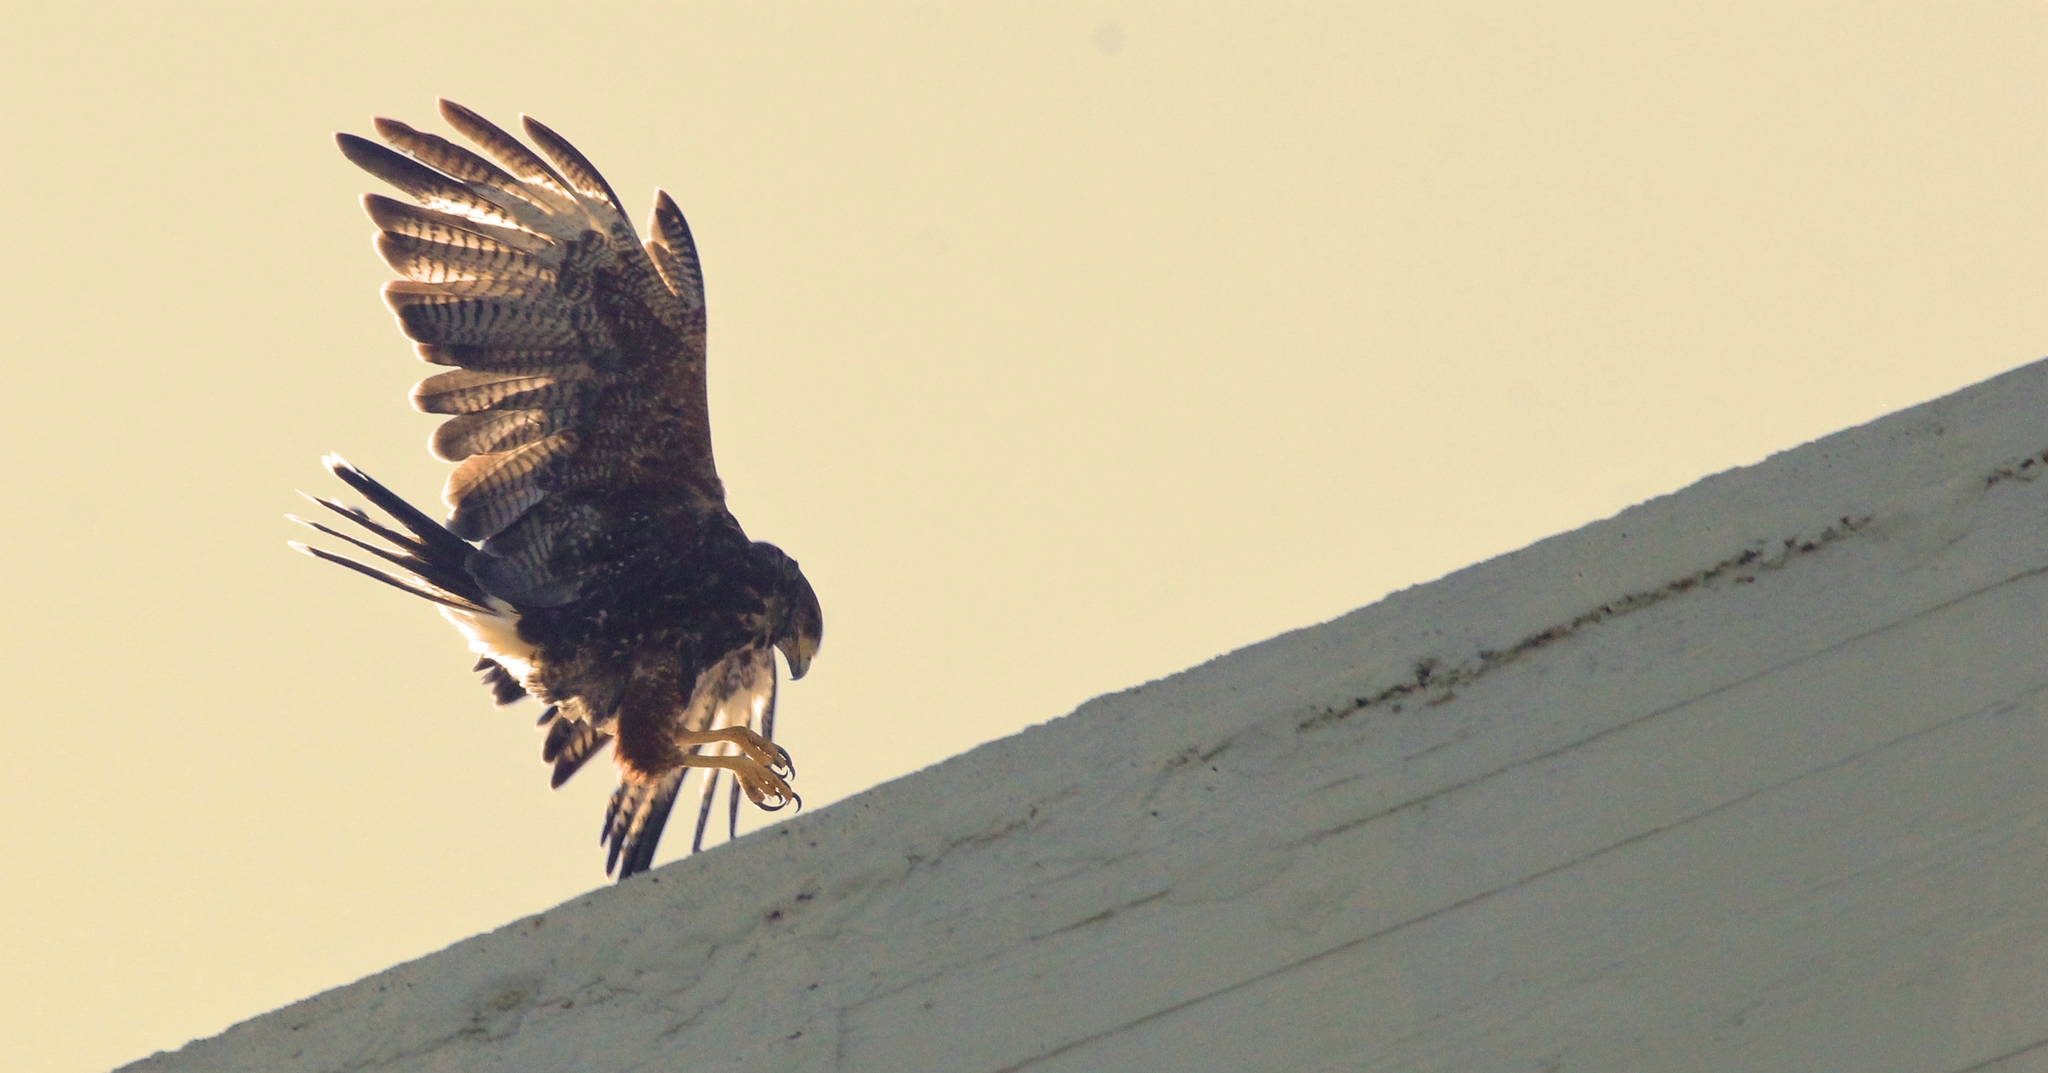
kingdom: Animalia
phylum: Chordata
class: Aves
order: Accipitriformes
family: Accipitridae
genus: Parabuteo
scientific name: Parabuteo unicinctus
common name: Harris's hawk
